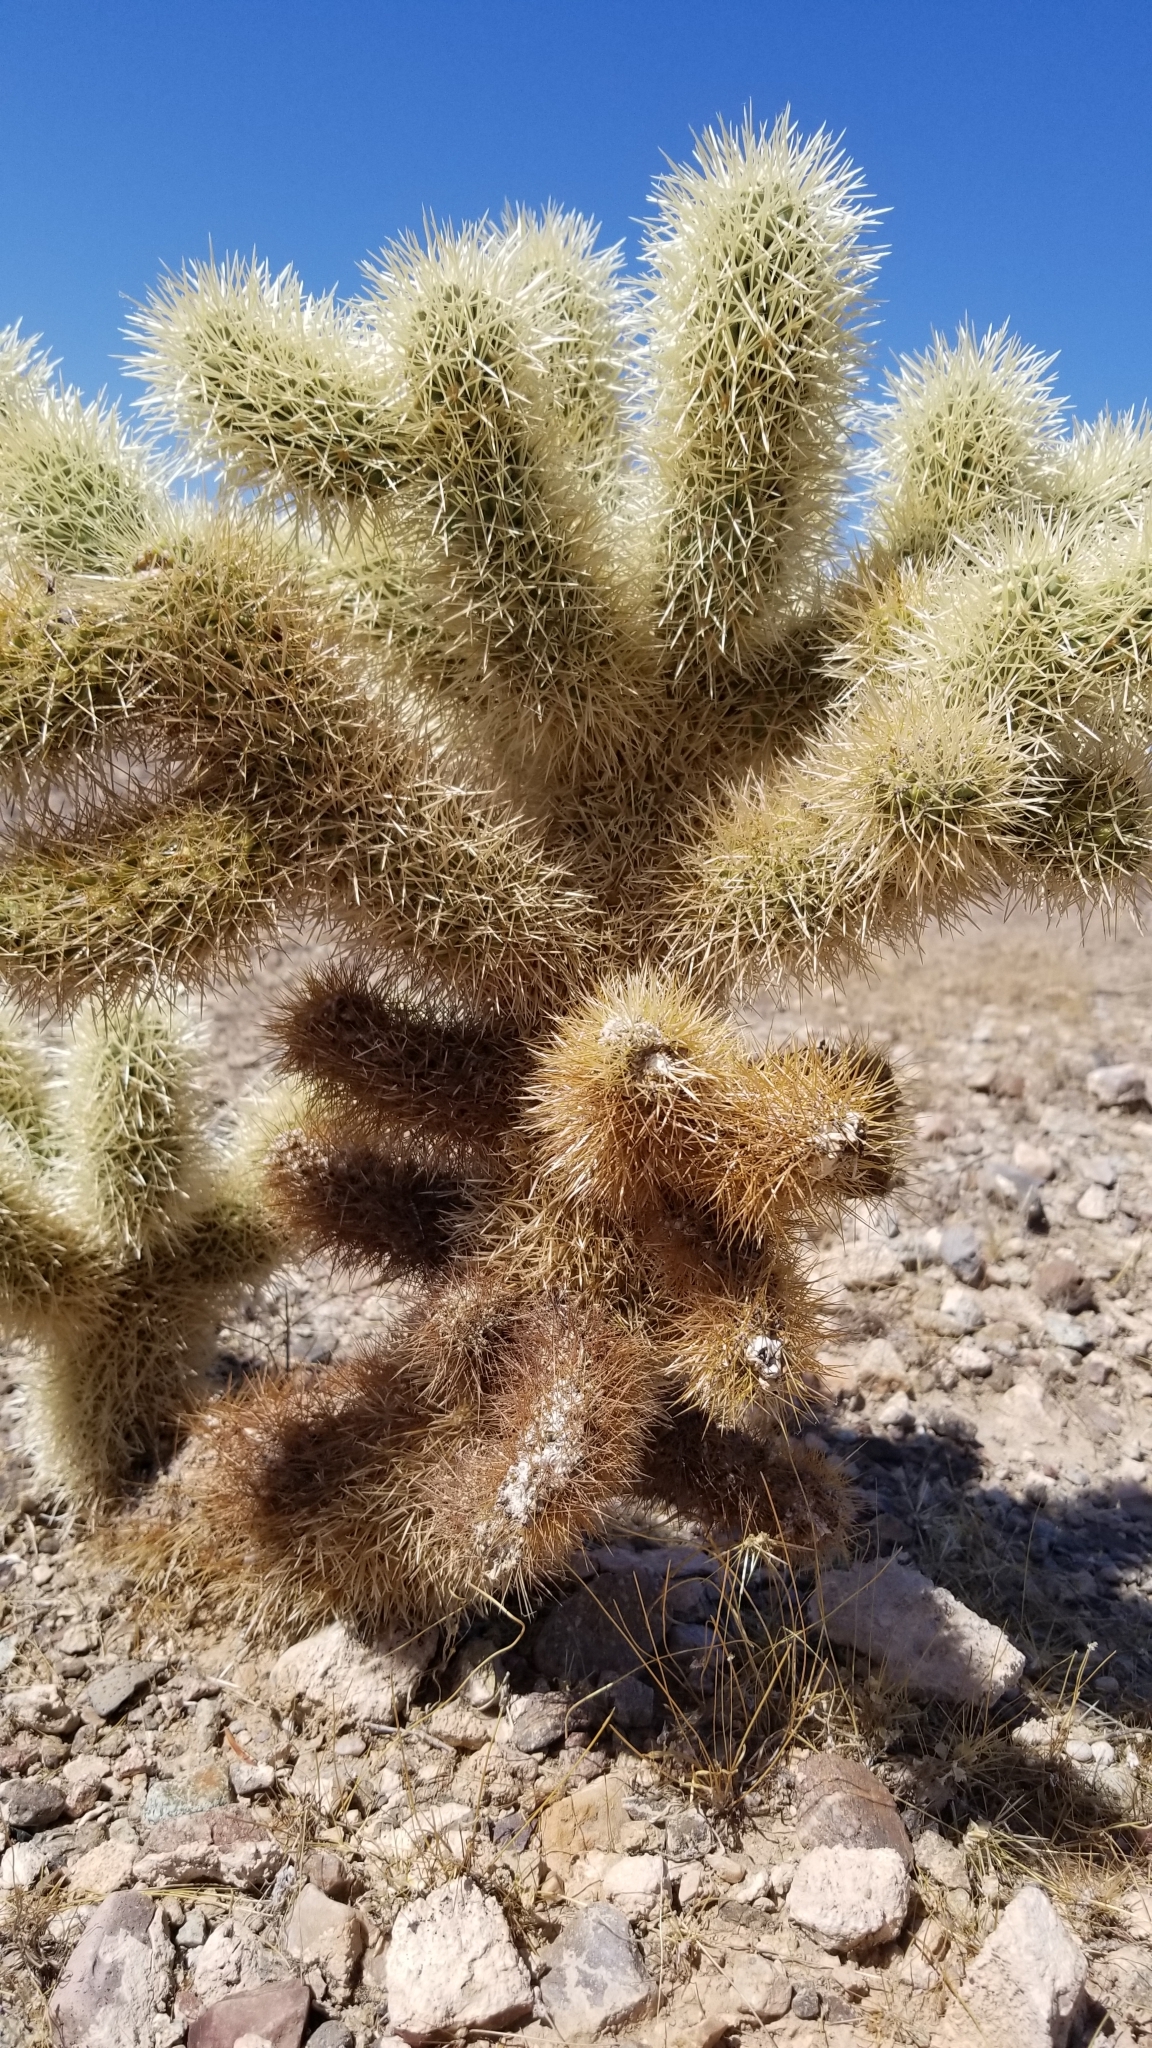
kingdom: Plantae
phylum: Tracheophyta
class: Magnoliopsida
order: Caryophyllales
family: Cactaceae
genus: Cylindropuntia
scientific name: Cylindropuntia fosbergii
